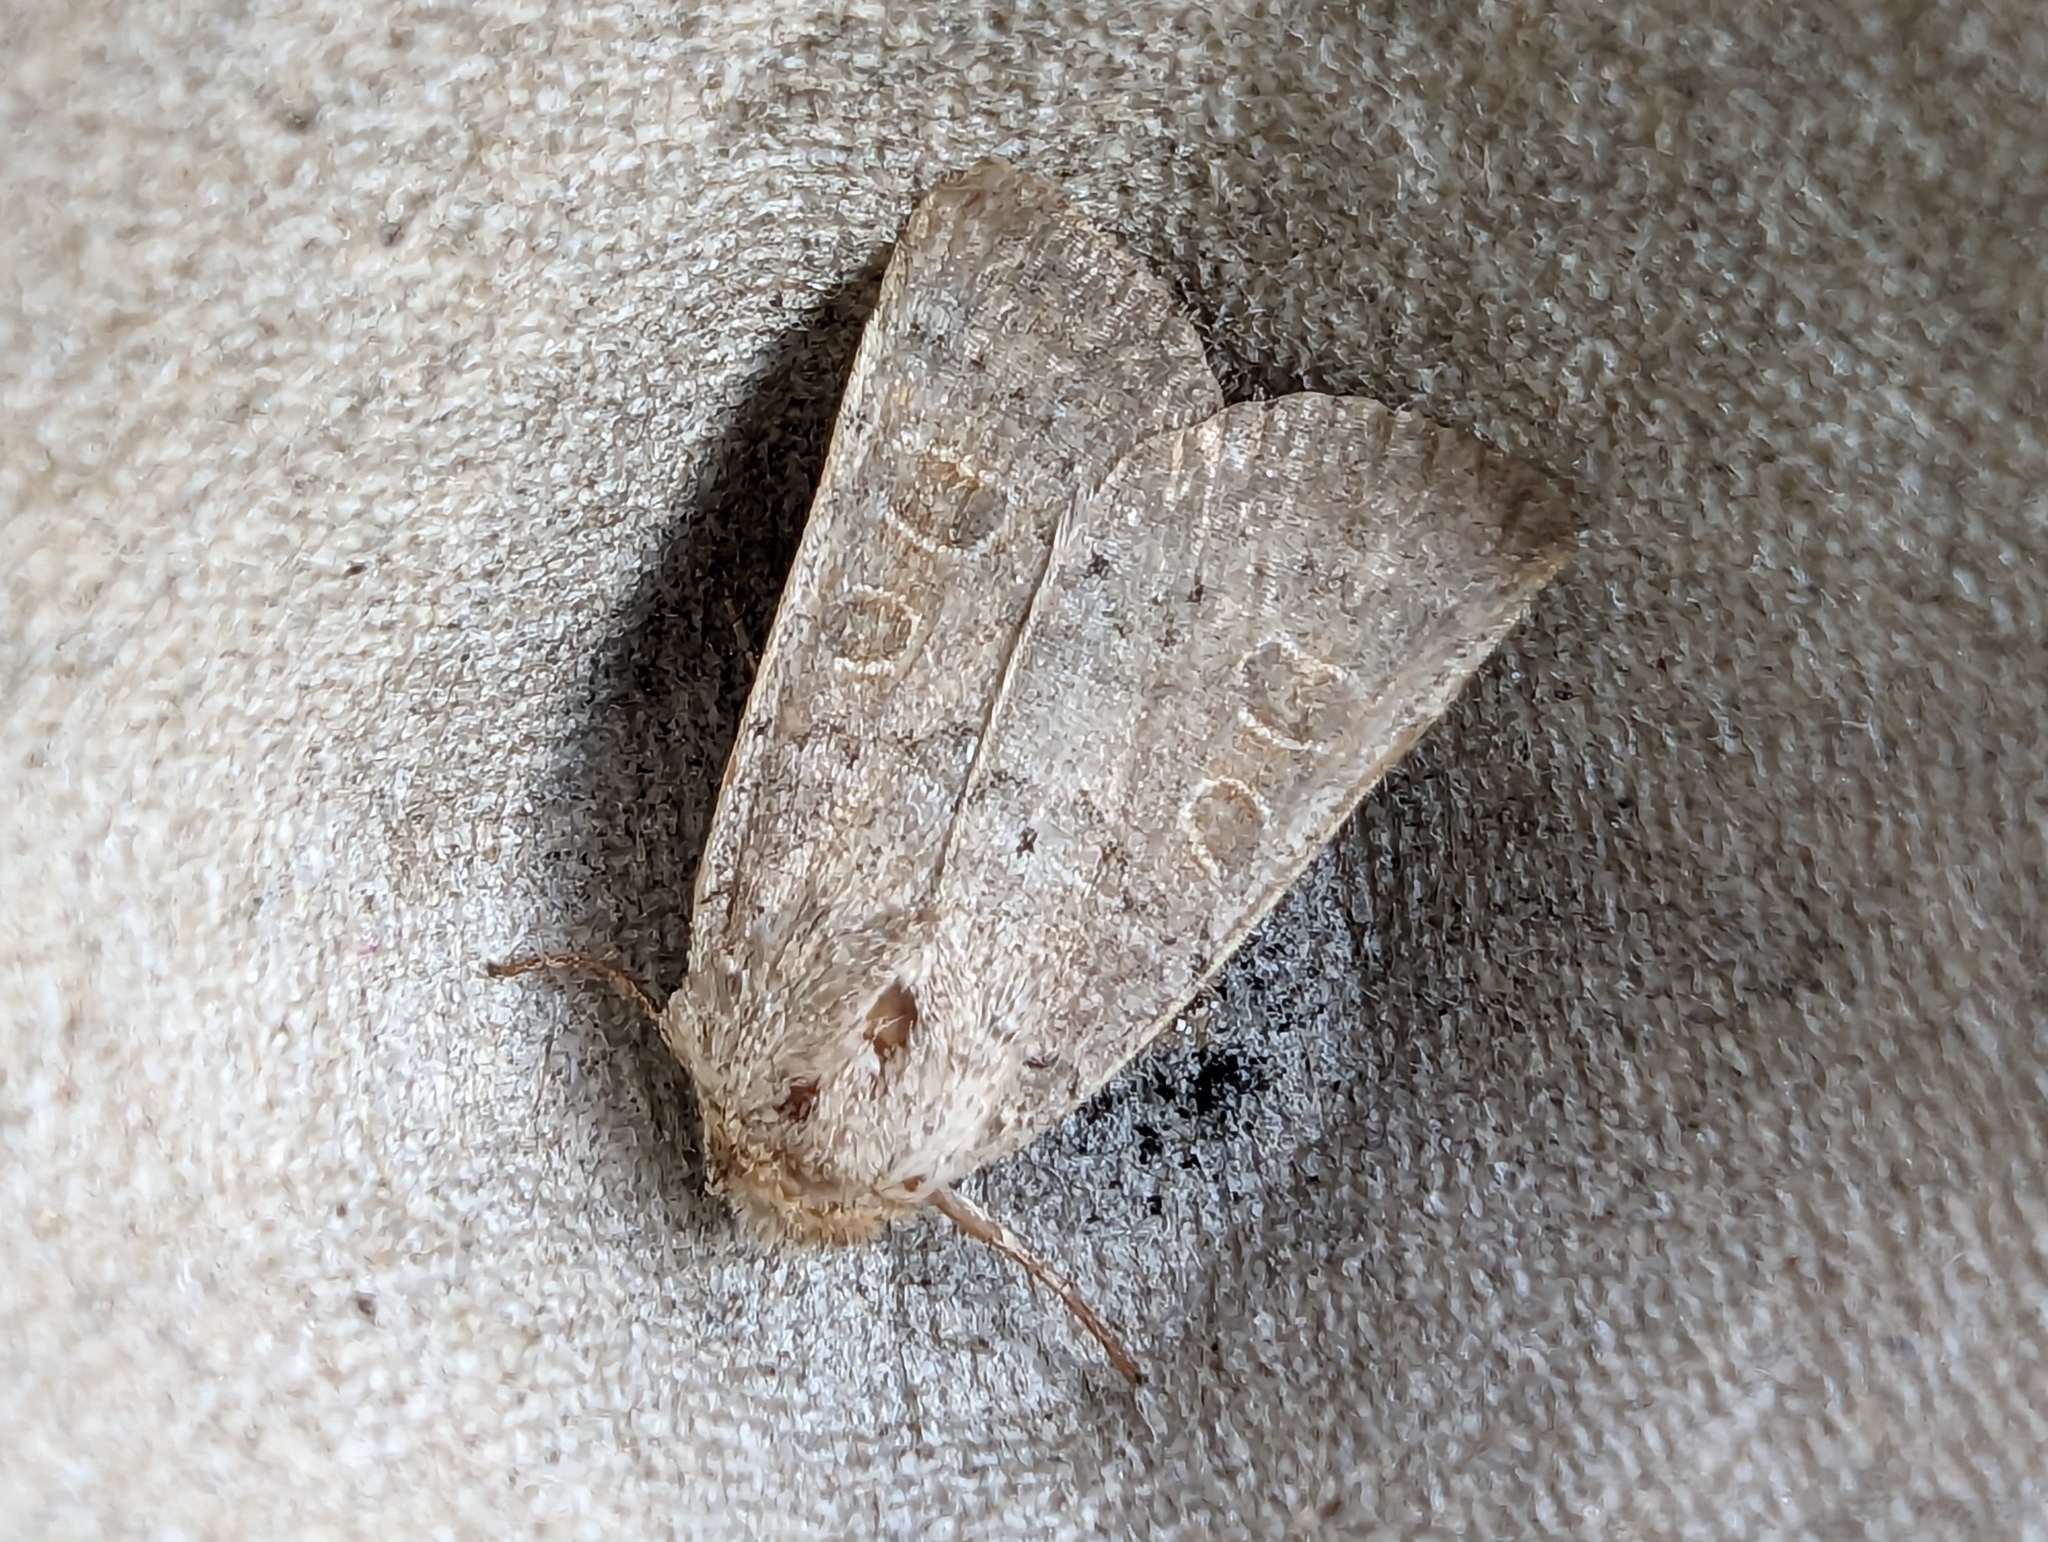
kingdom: Animalia
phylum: Arthropoda
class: Insecta
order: Lepidoptera
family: Noctuidae
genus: Hoplodrina
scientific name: Hoplodrina ambigua
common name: Vine's rustic
